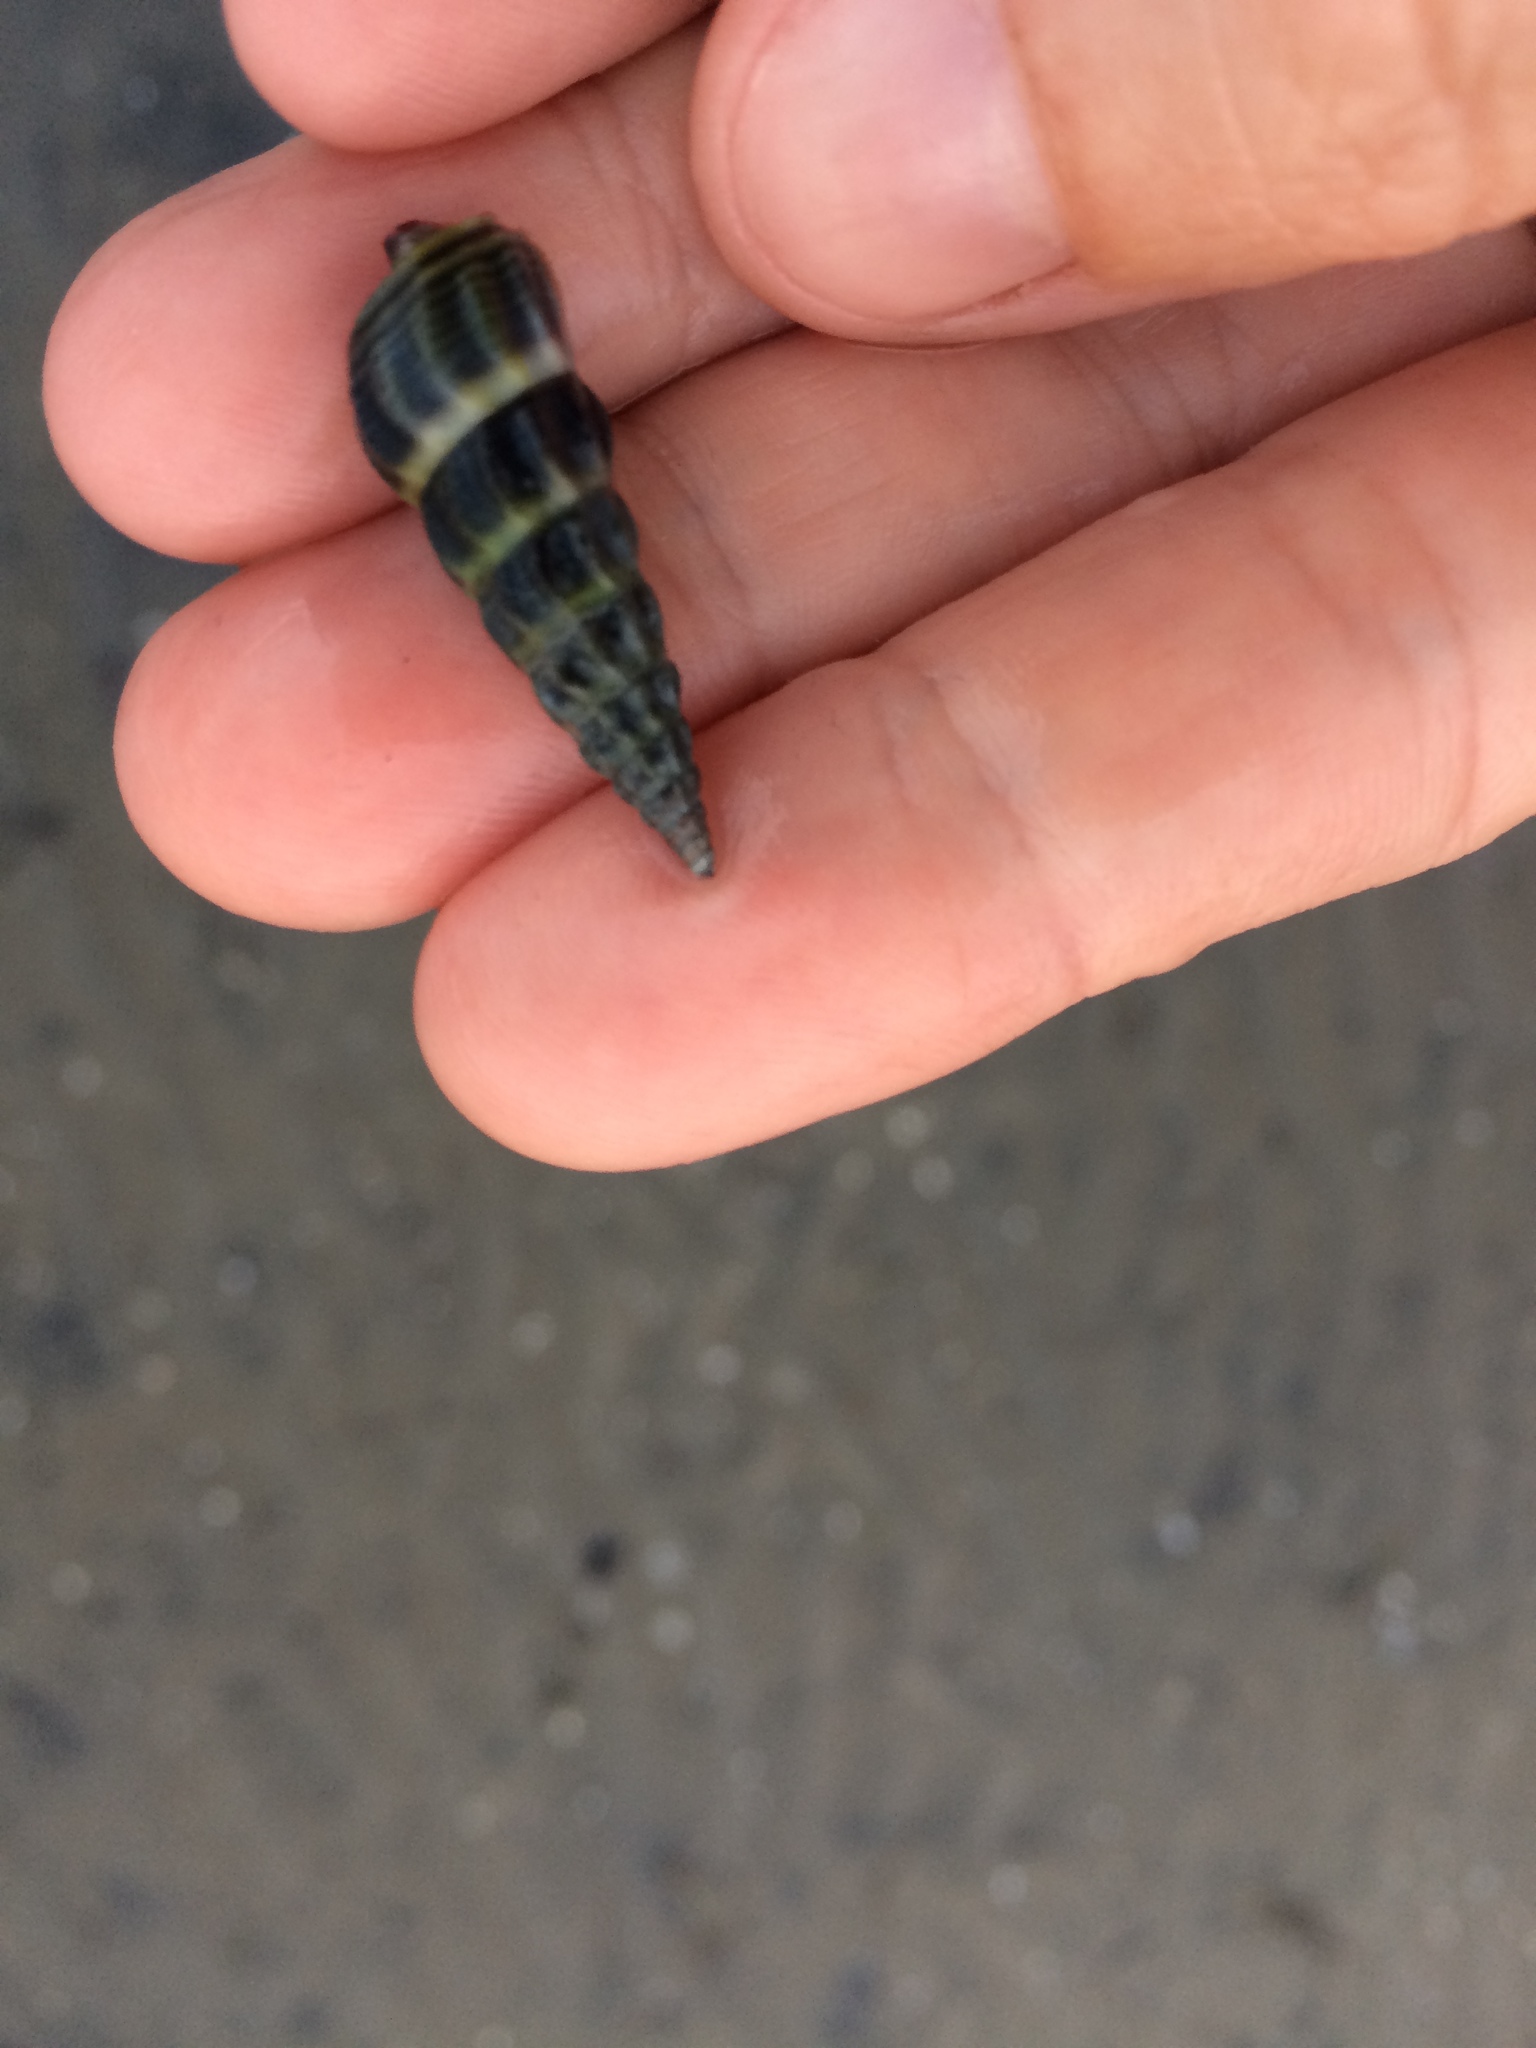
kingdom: Animalia
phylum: Mollusca
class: Gastropoda
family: Batillariidae
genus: Zeacumantus
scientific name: Zeacumantus lutulentus
